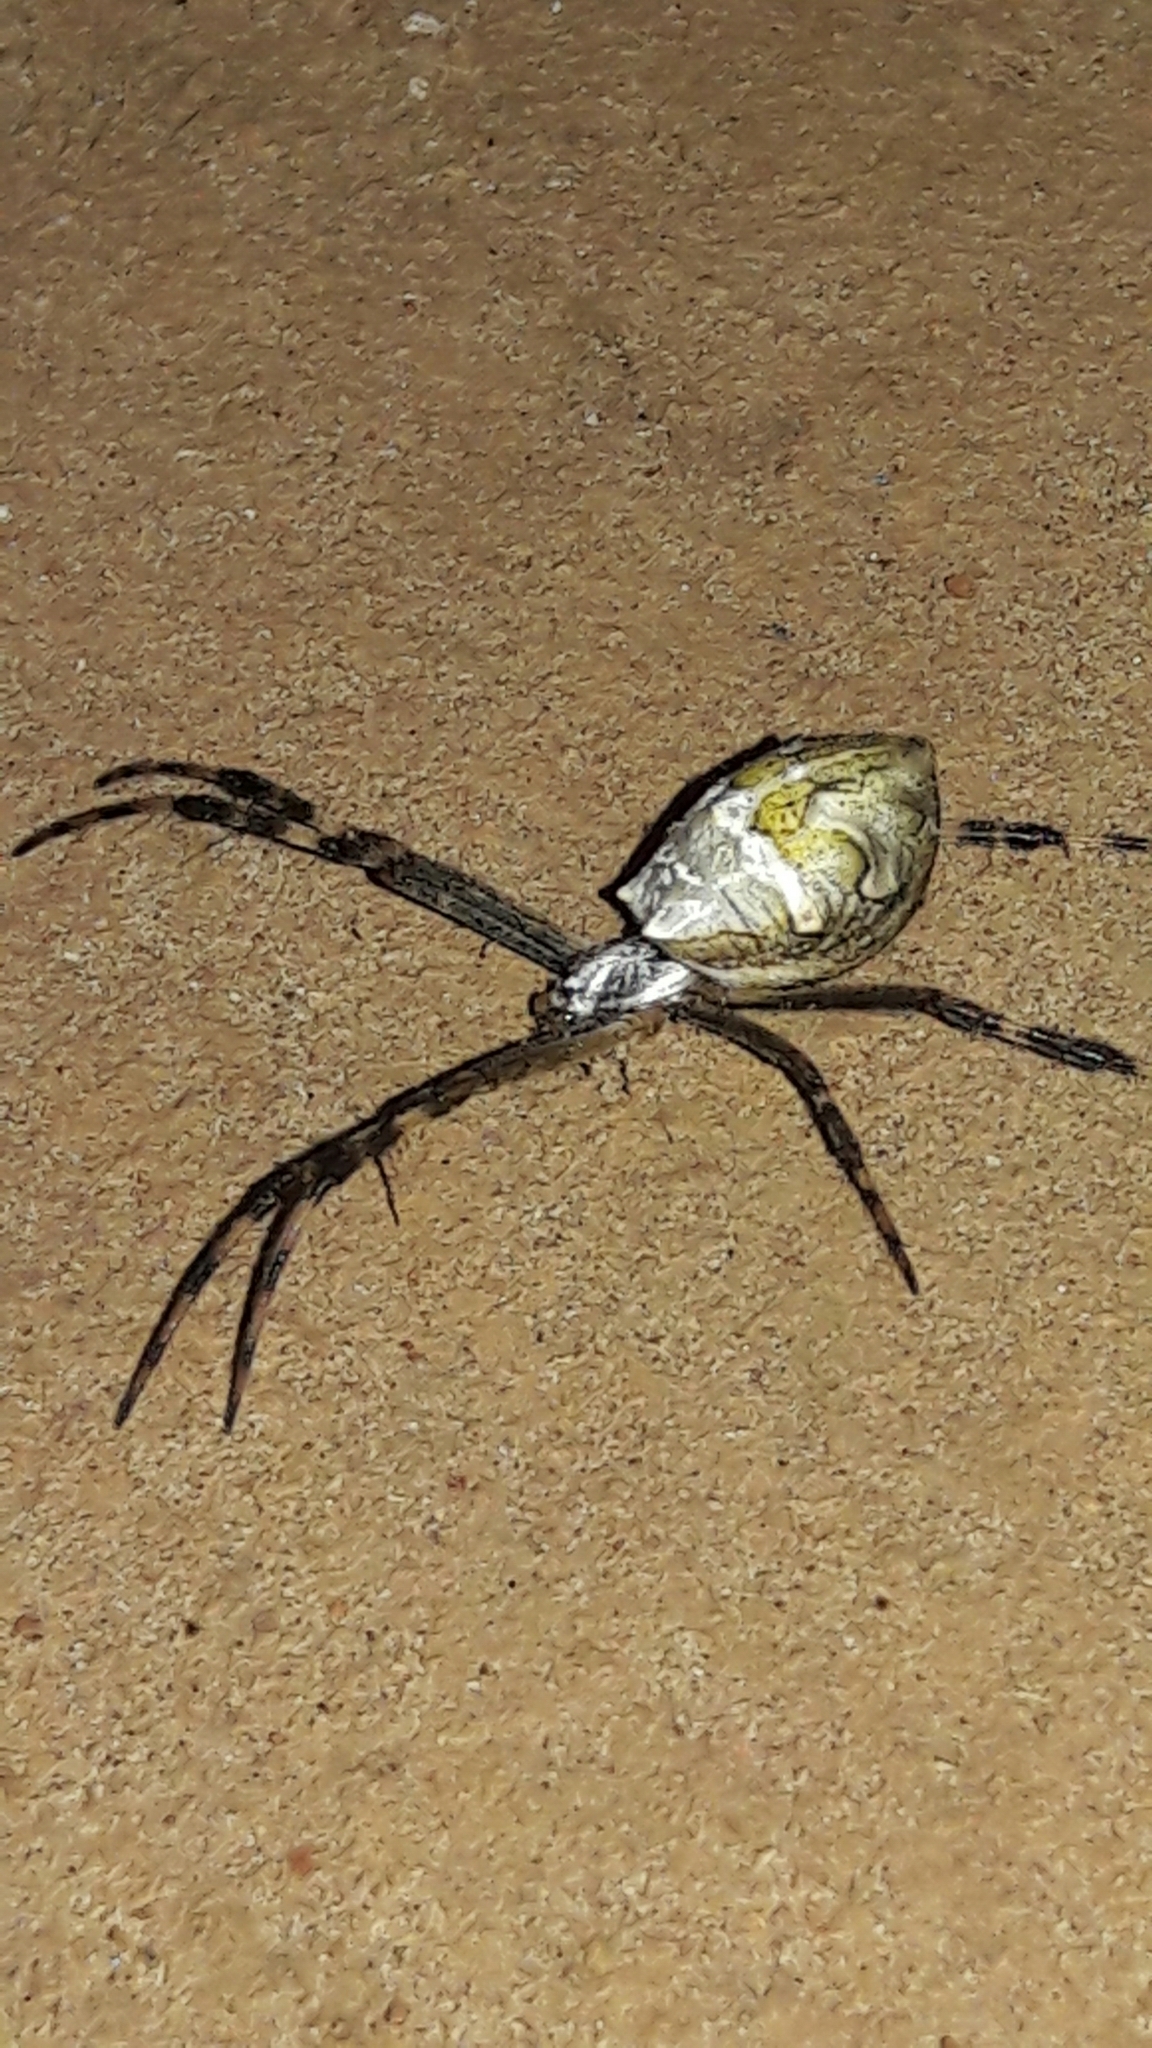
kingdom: Animalia
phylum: Arthropoda
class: Arachnida
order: Araneae
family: Araneidae
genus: Argiope
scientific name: Argiope argentata
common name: Orb weavers
